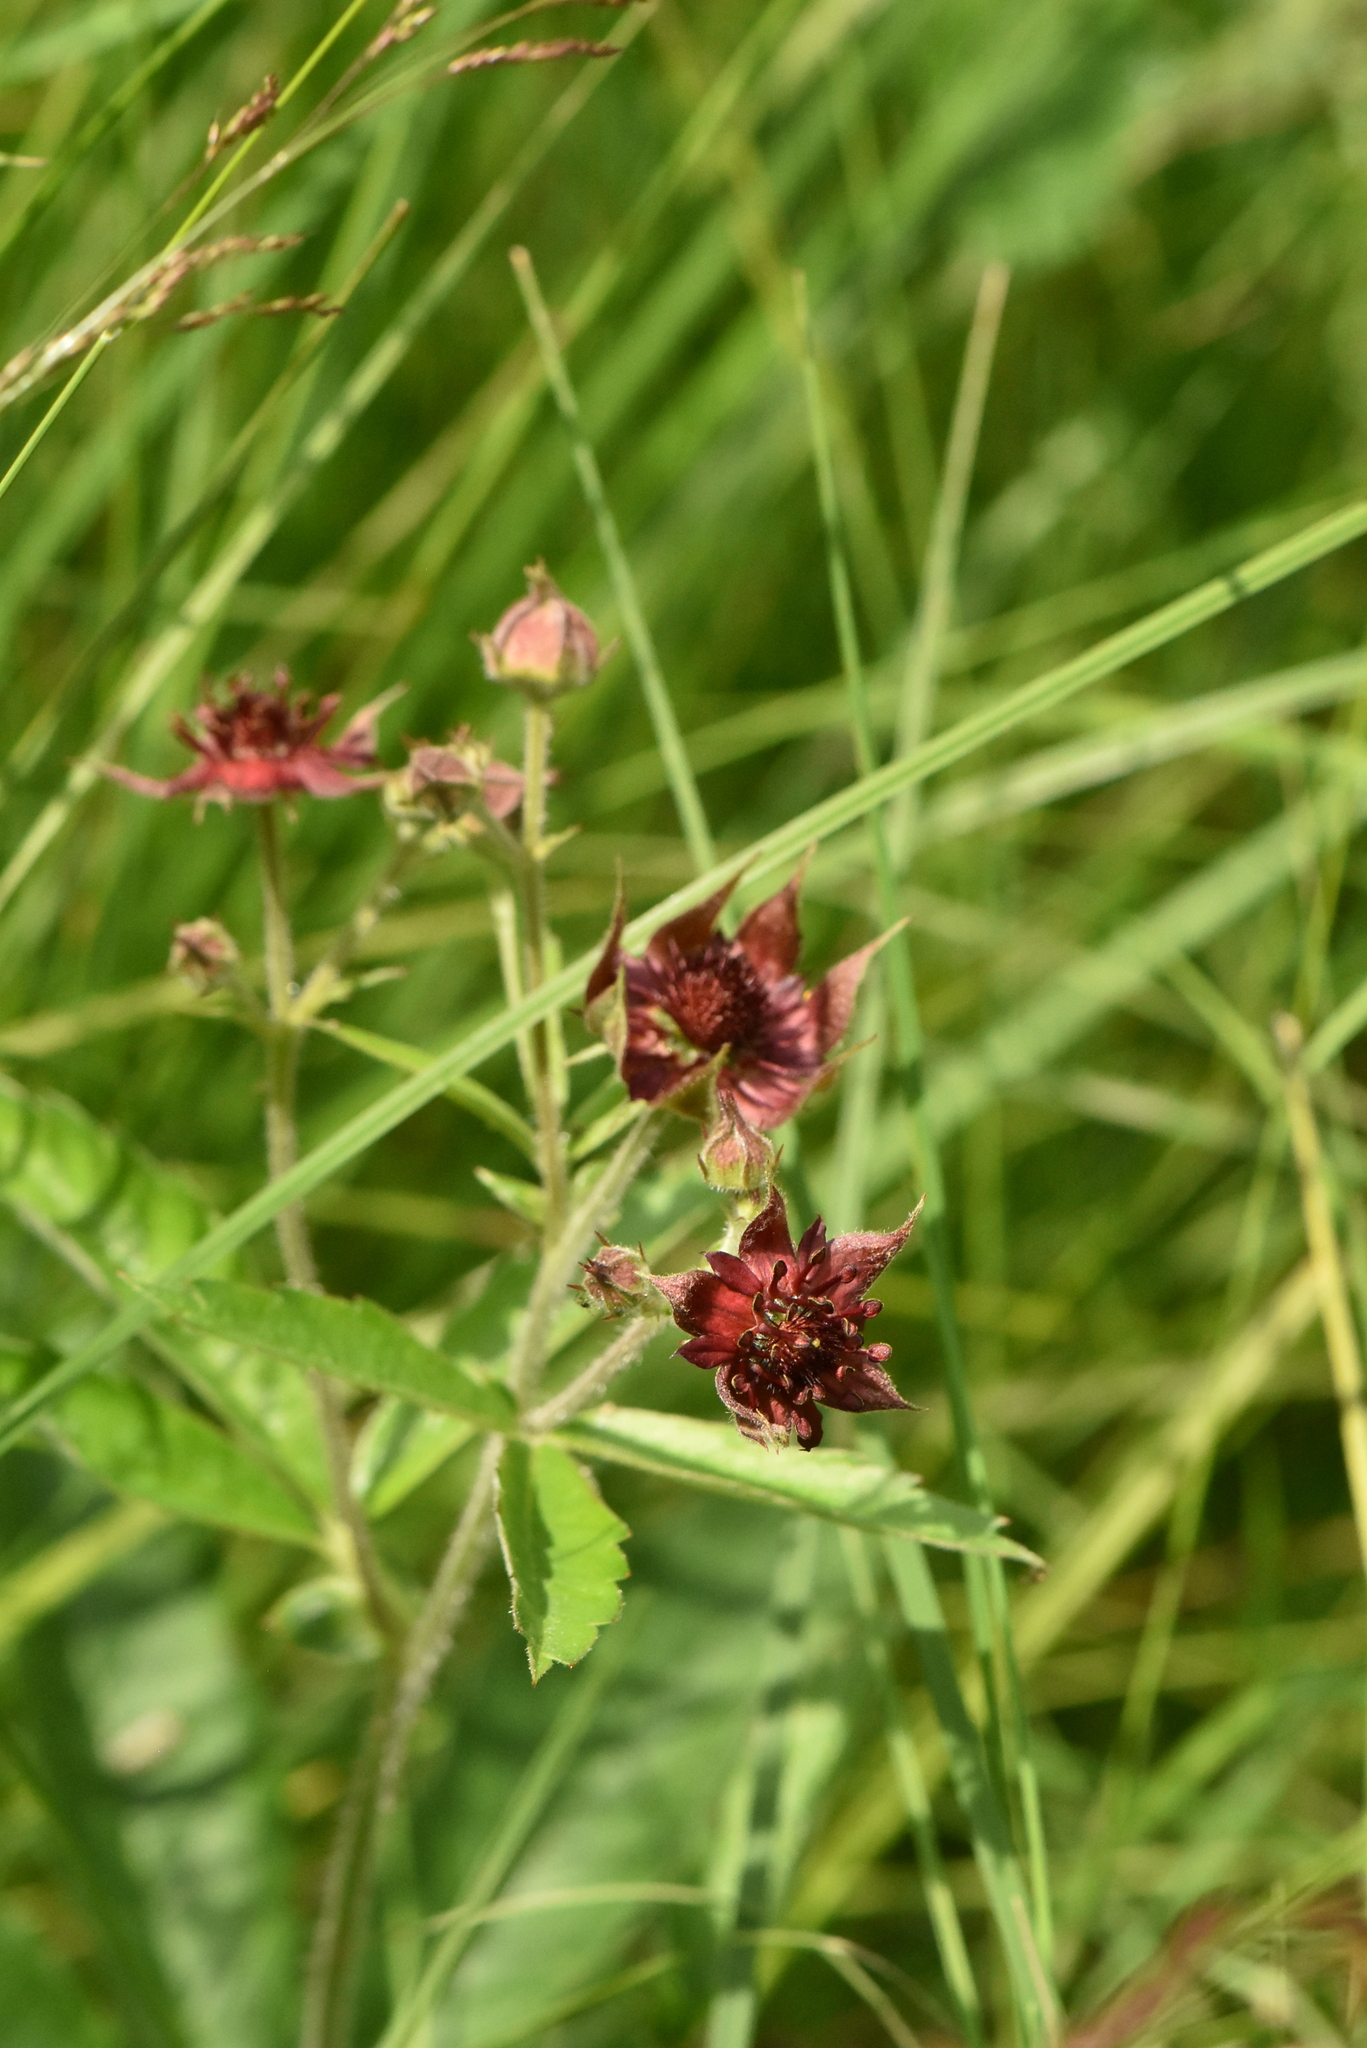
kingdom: Plantae
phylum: Tracheophyta
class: Magnoliopsida
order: Rosales
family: Rosaceae
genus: Comarum
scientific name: Comarum palustre
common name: Marsh cinquefoil
